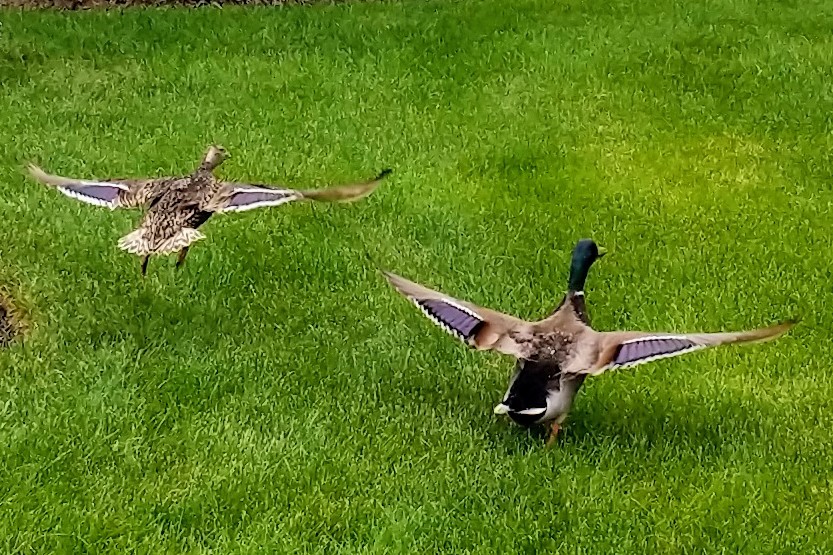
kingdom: Animalia
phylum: Chordata
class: Aves
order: Anseriformes
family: Anatidae
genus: Anas
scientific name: Anas platyrhynchos
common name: Mallard
